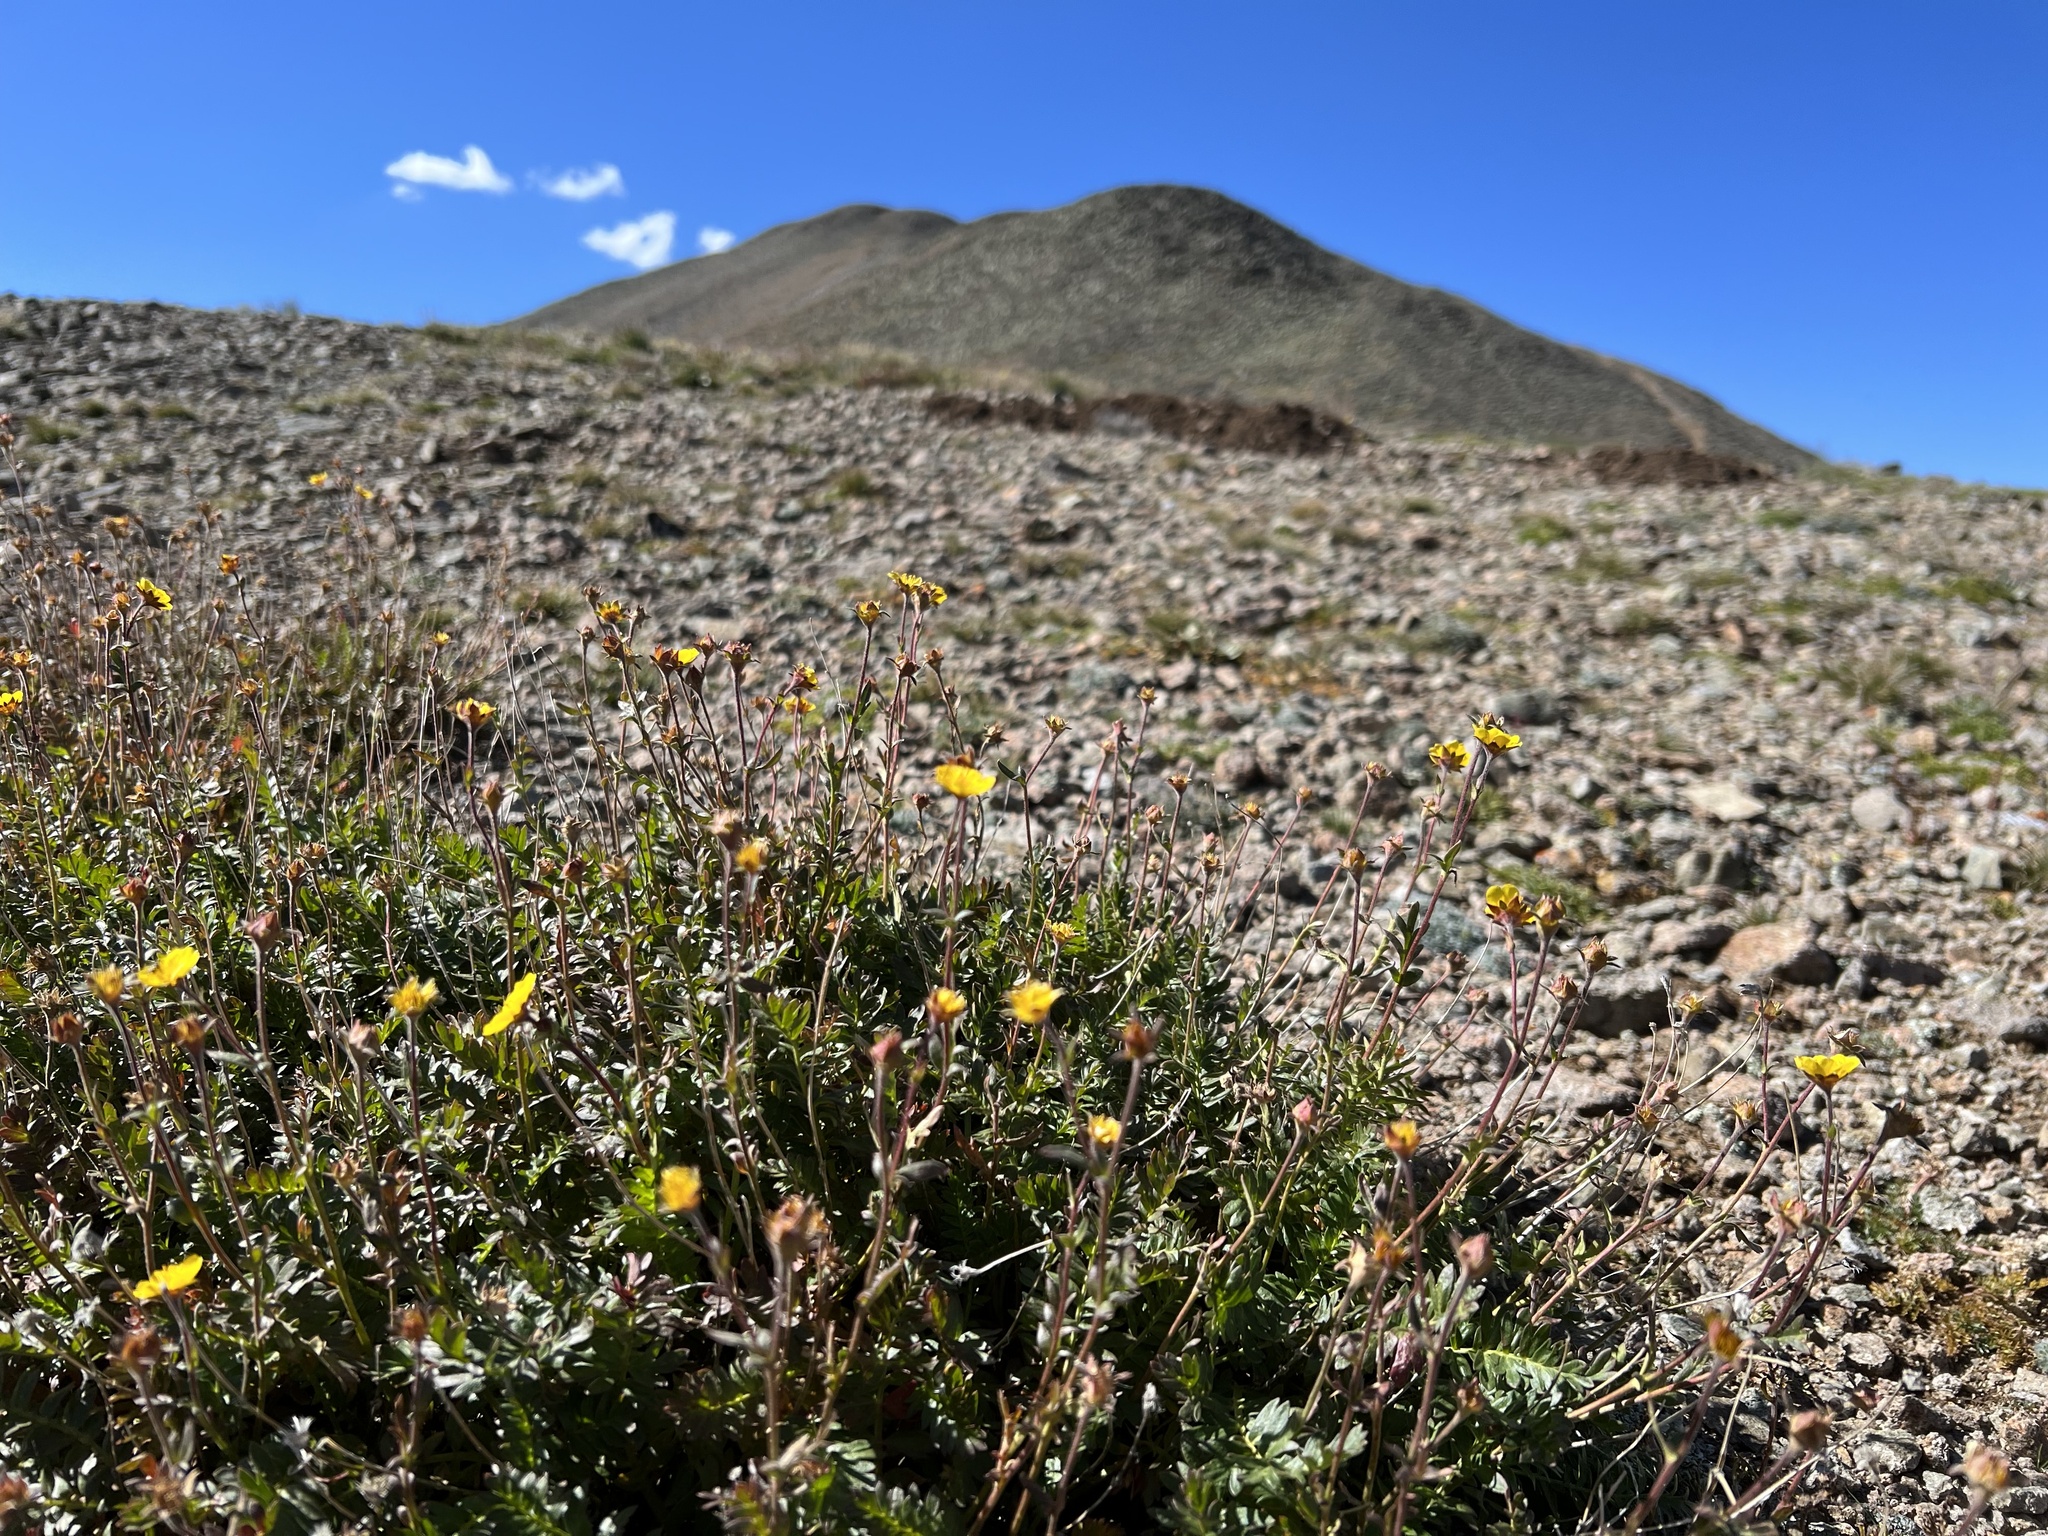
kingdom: Plantae
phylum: Tracheophyta
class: Magnoliopsida
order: Rosales
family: Rosaceae
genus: Geum
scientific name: Geum rossii
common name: Alpine avens
